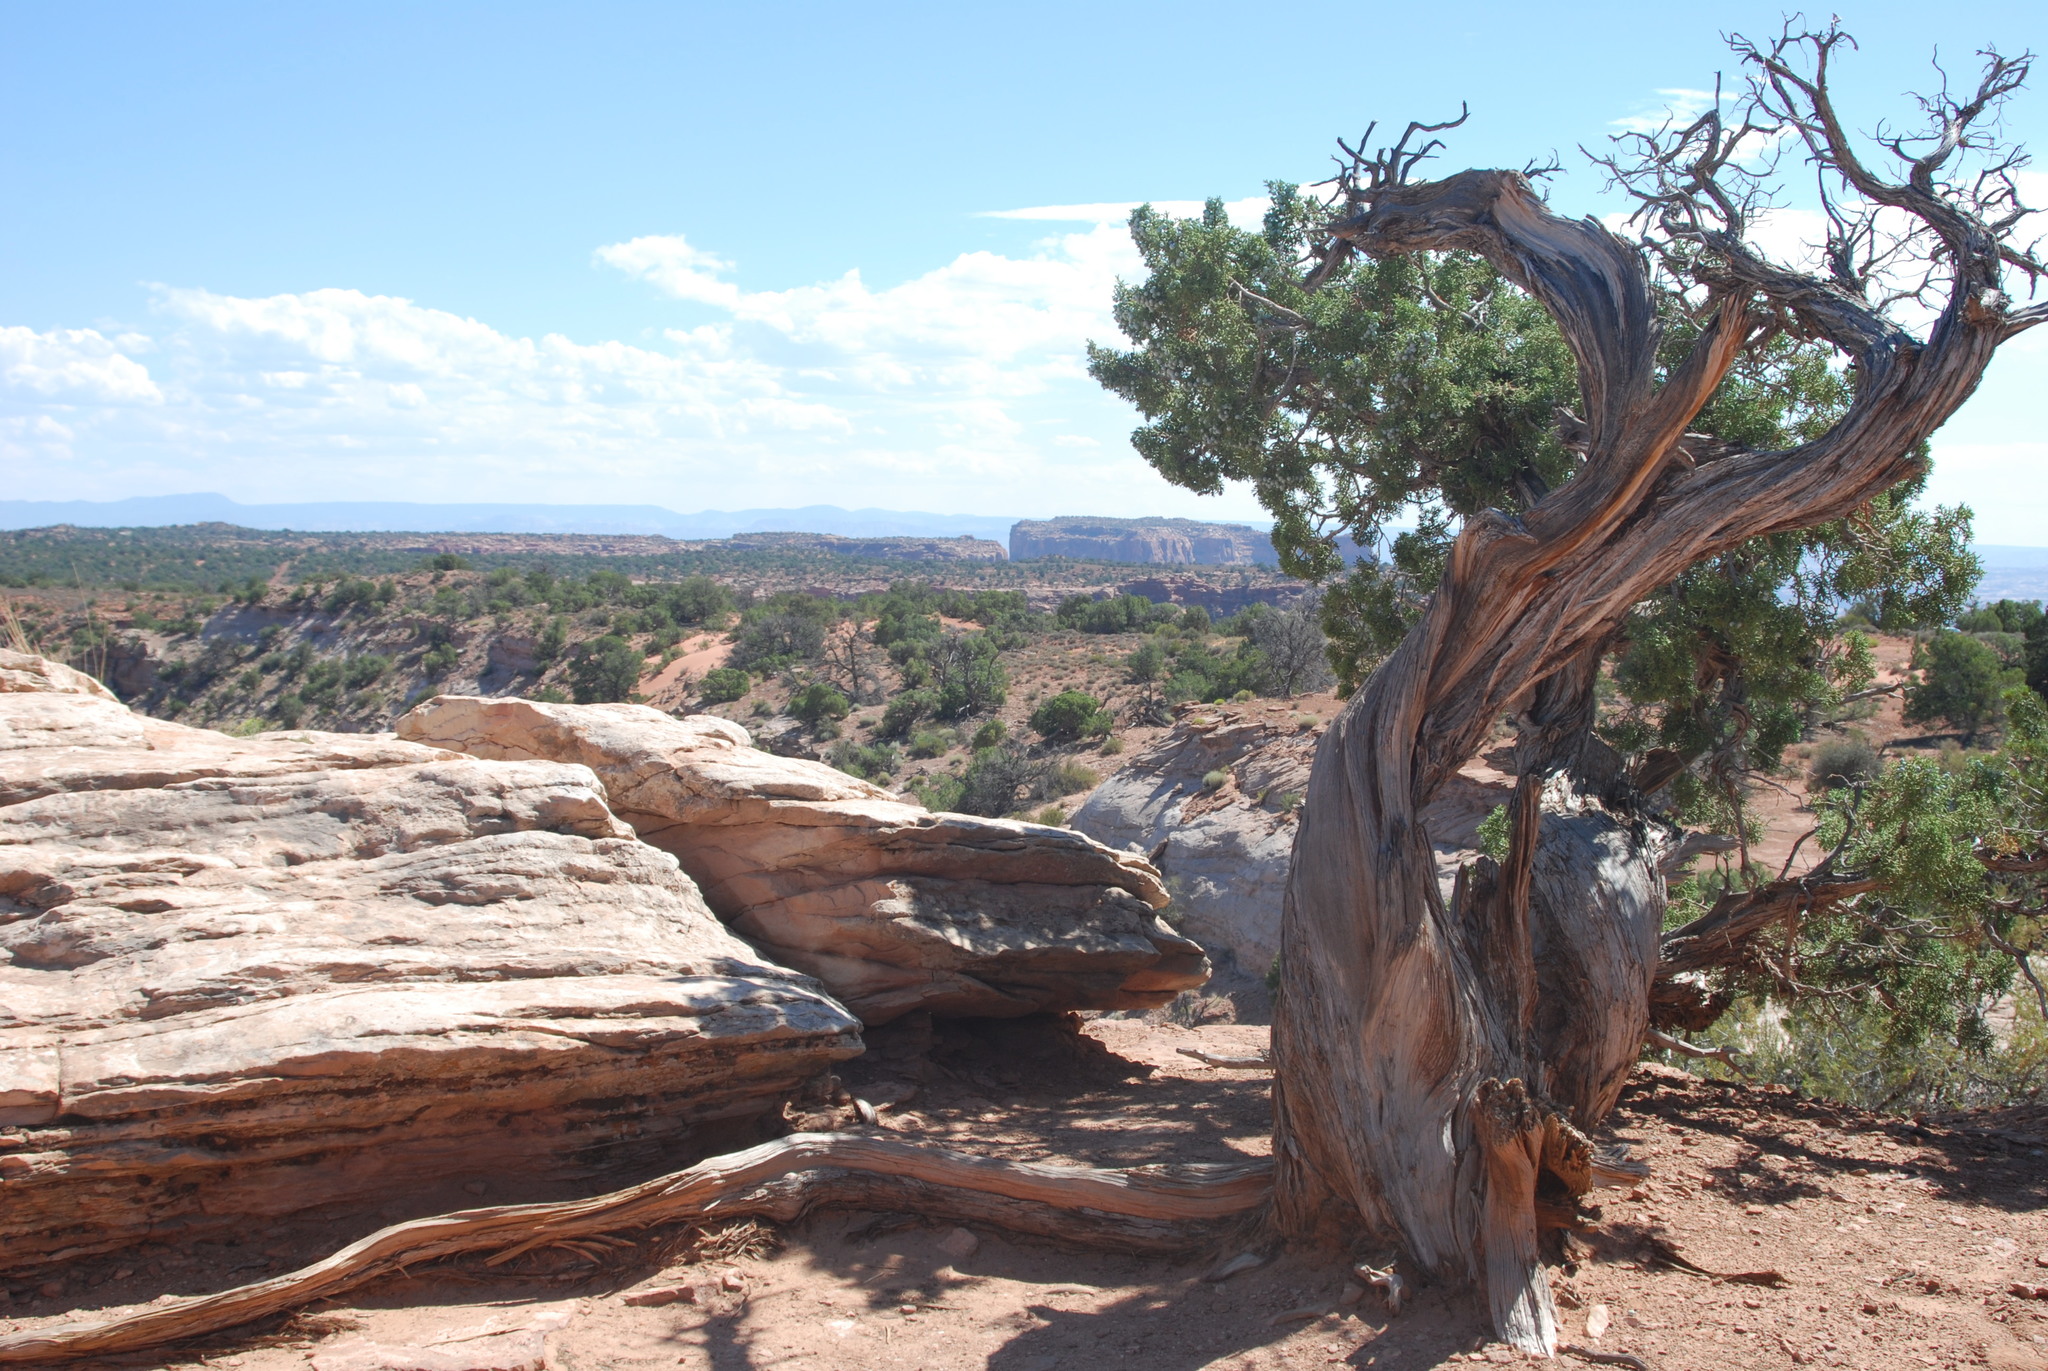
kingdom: Plantae
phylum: Tracheophyta
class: Pinopsida
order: Pinales
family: Cupressaceae
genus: Juniperus
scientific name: Juniperus osteosperma
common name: Utah juniper
